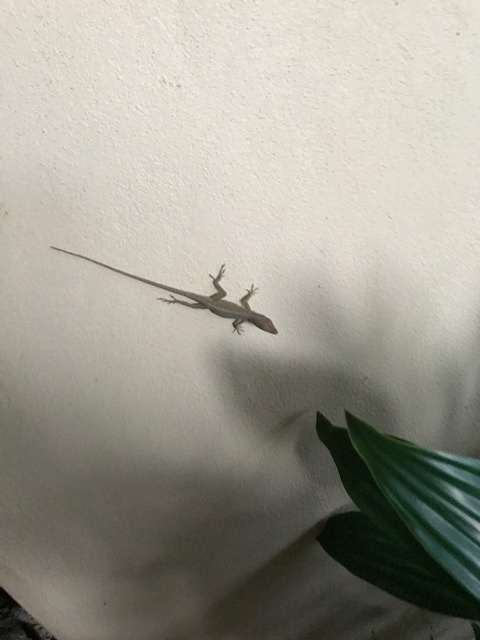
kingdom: Animalia
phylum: Chordata
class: Squamata
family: Dactyloidae
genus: Anolis
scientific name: Anolis carolinensis
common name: Green anole
